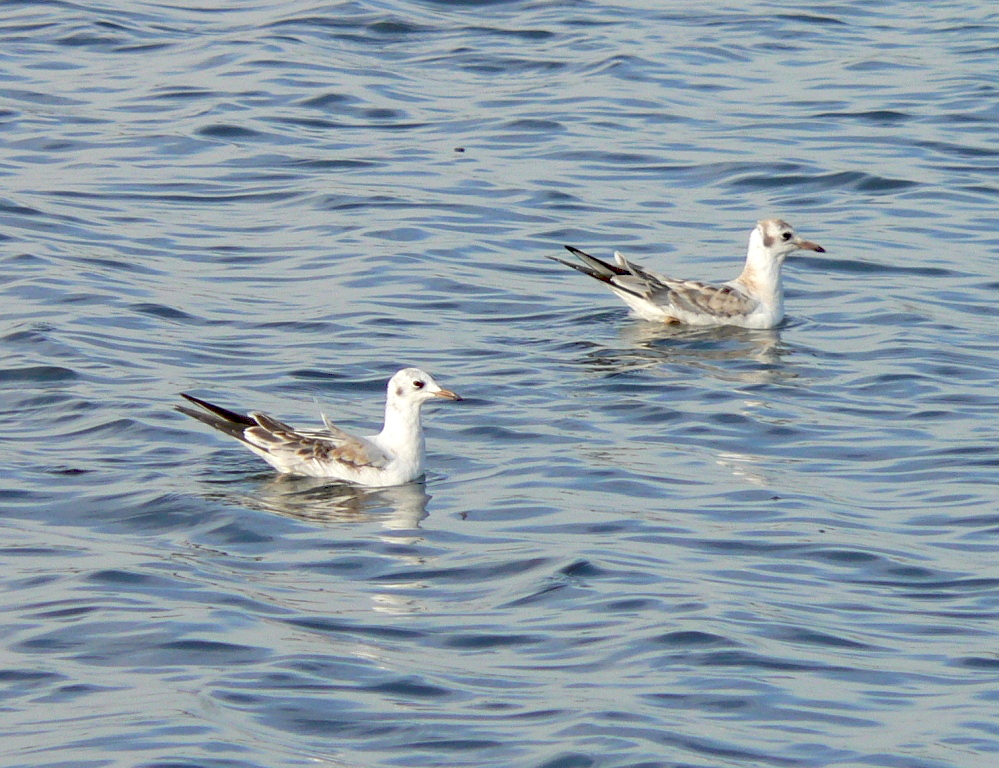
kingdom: Animalia
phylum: Chordata
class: Aves
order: Charadriiformes
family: Laridae
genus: Chroicocephalus
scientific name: Chroicocephalus ridibundus
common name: Black-headed gull
